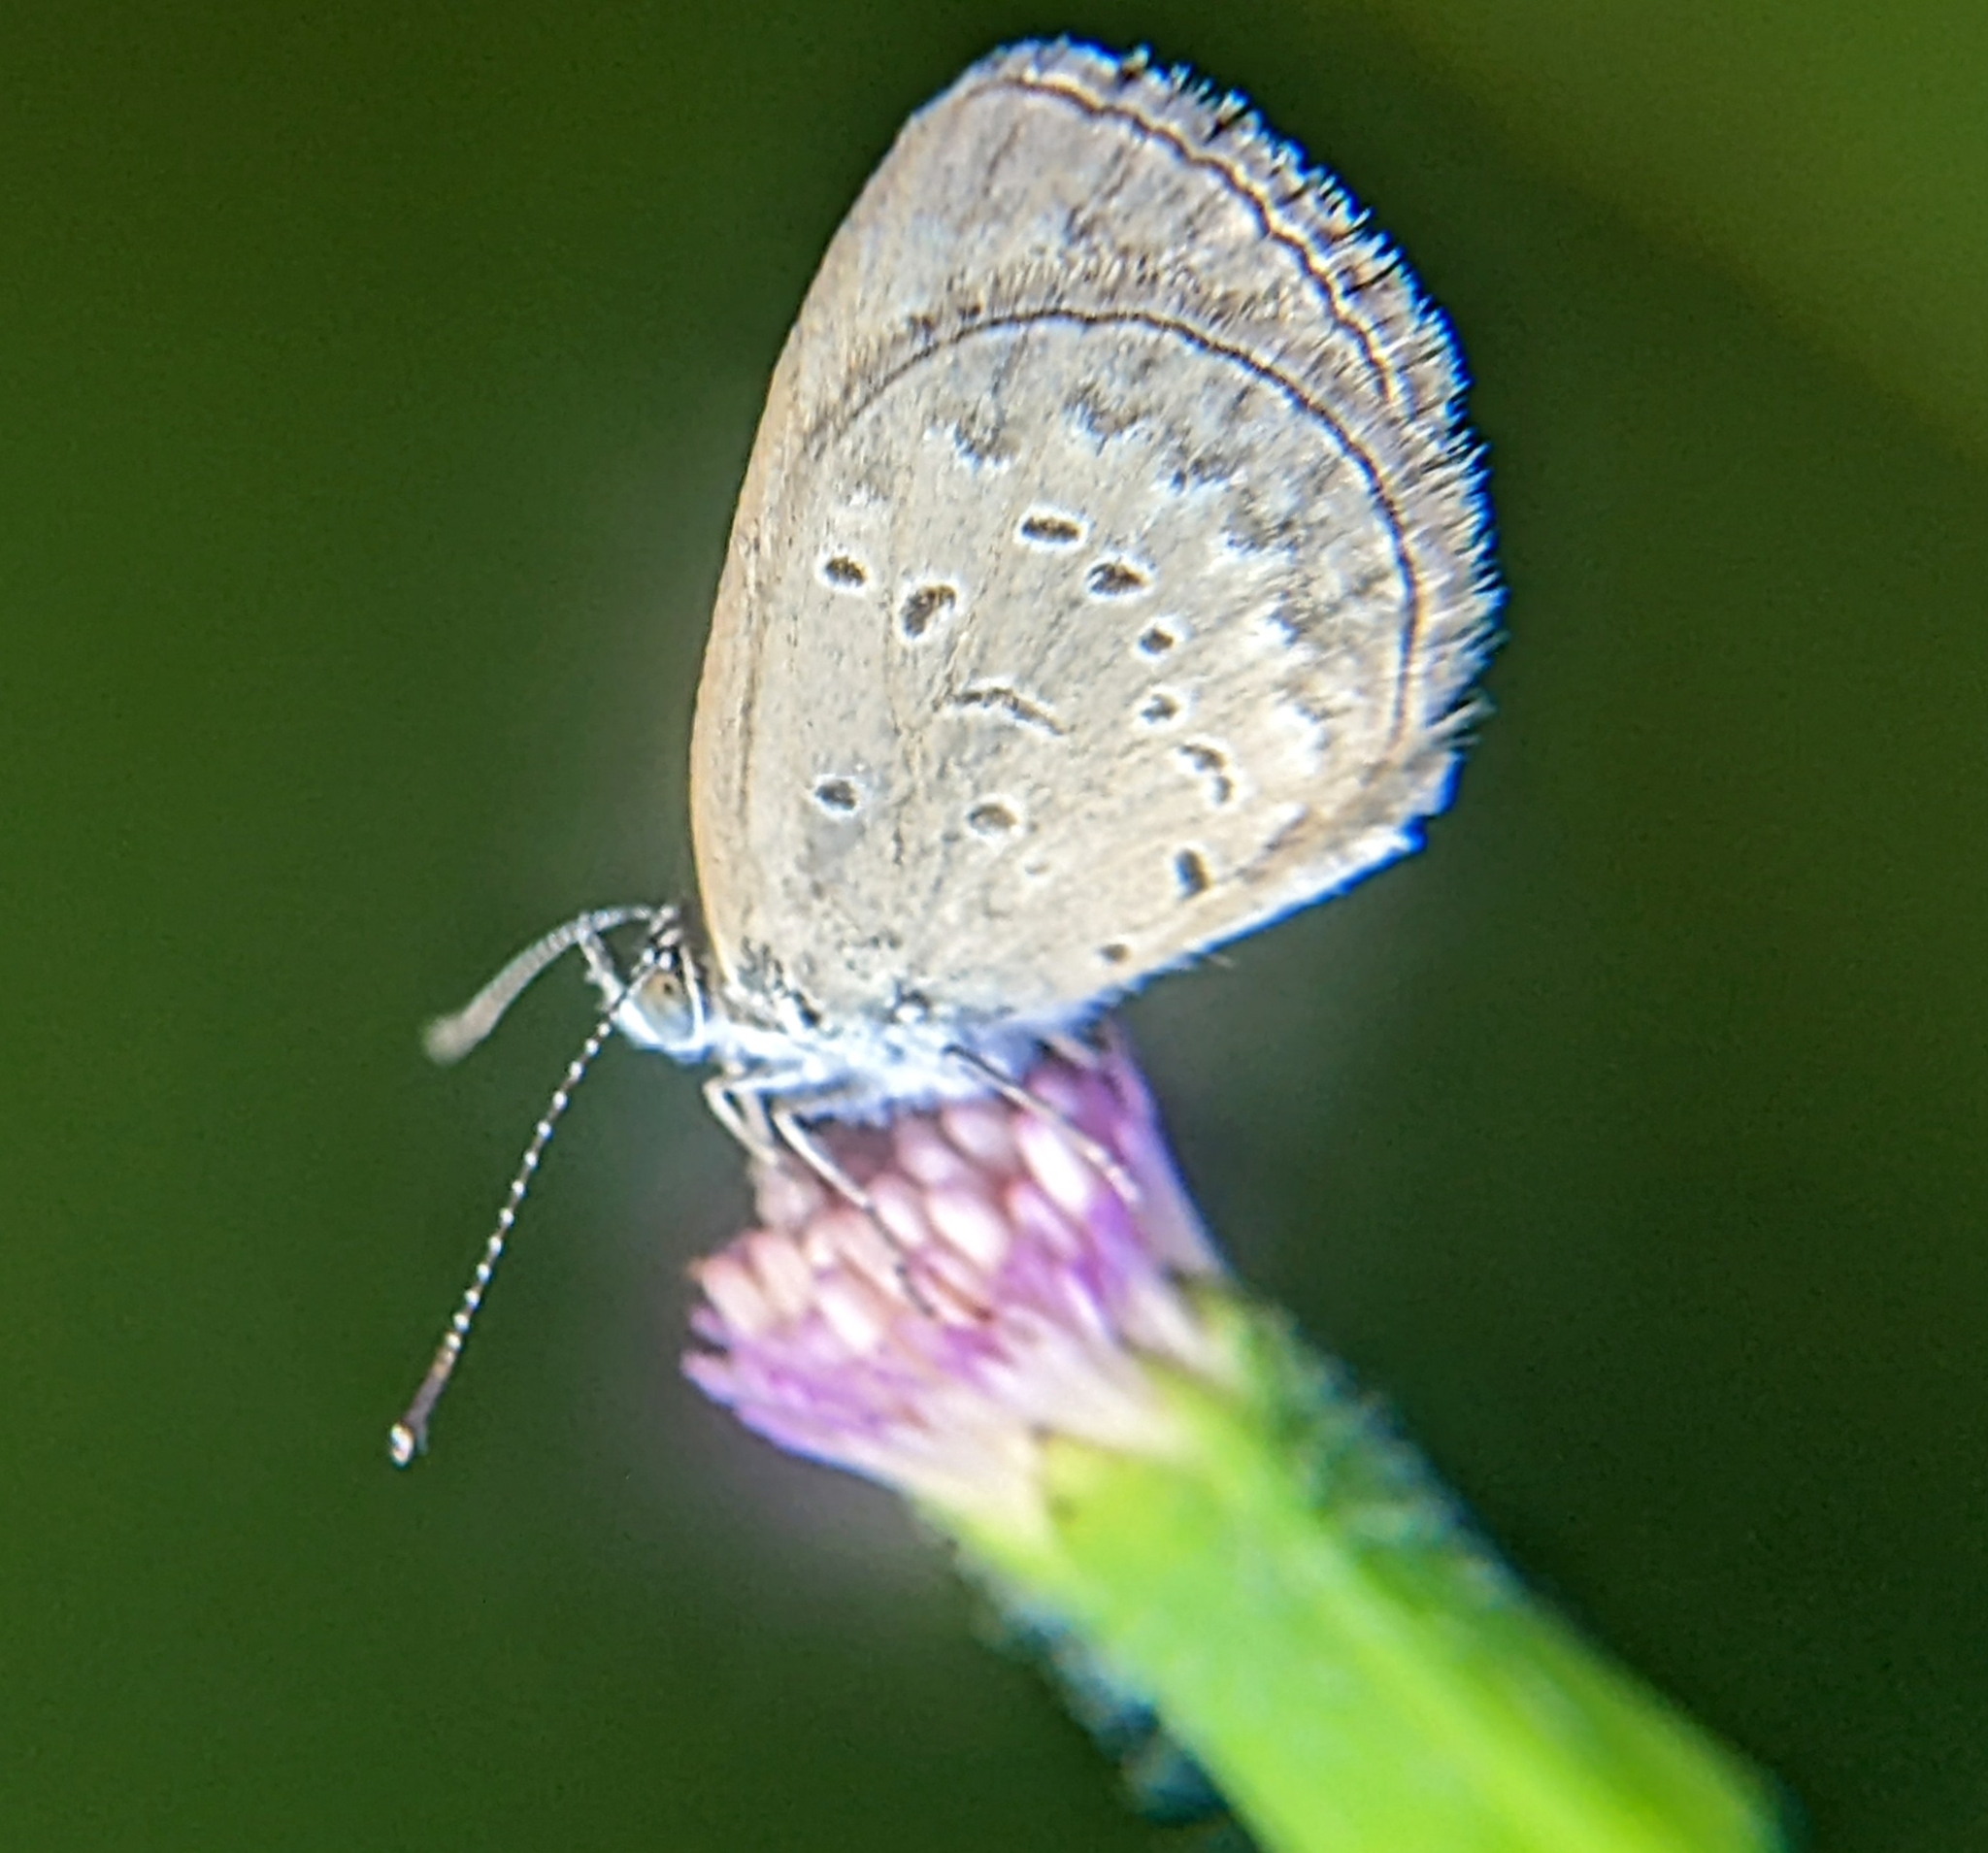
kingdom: Animalia
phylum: Arthropoda
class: Insecta
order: Lepidoptera
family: Lycaenidae
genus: Zizina
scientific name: Zizina otis
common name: Lesser grass blue
